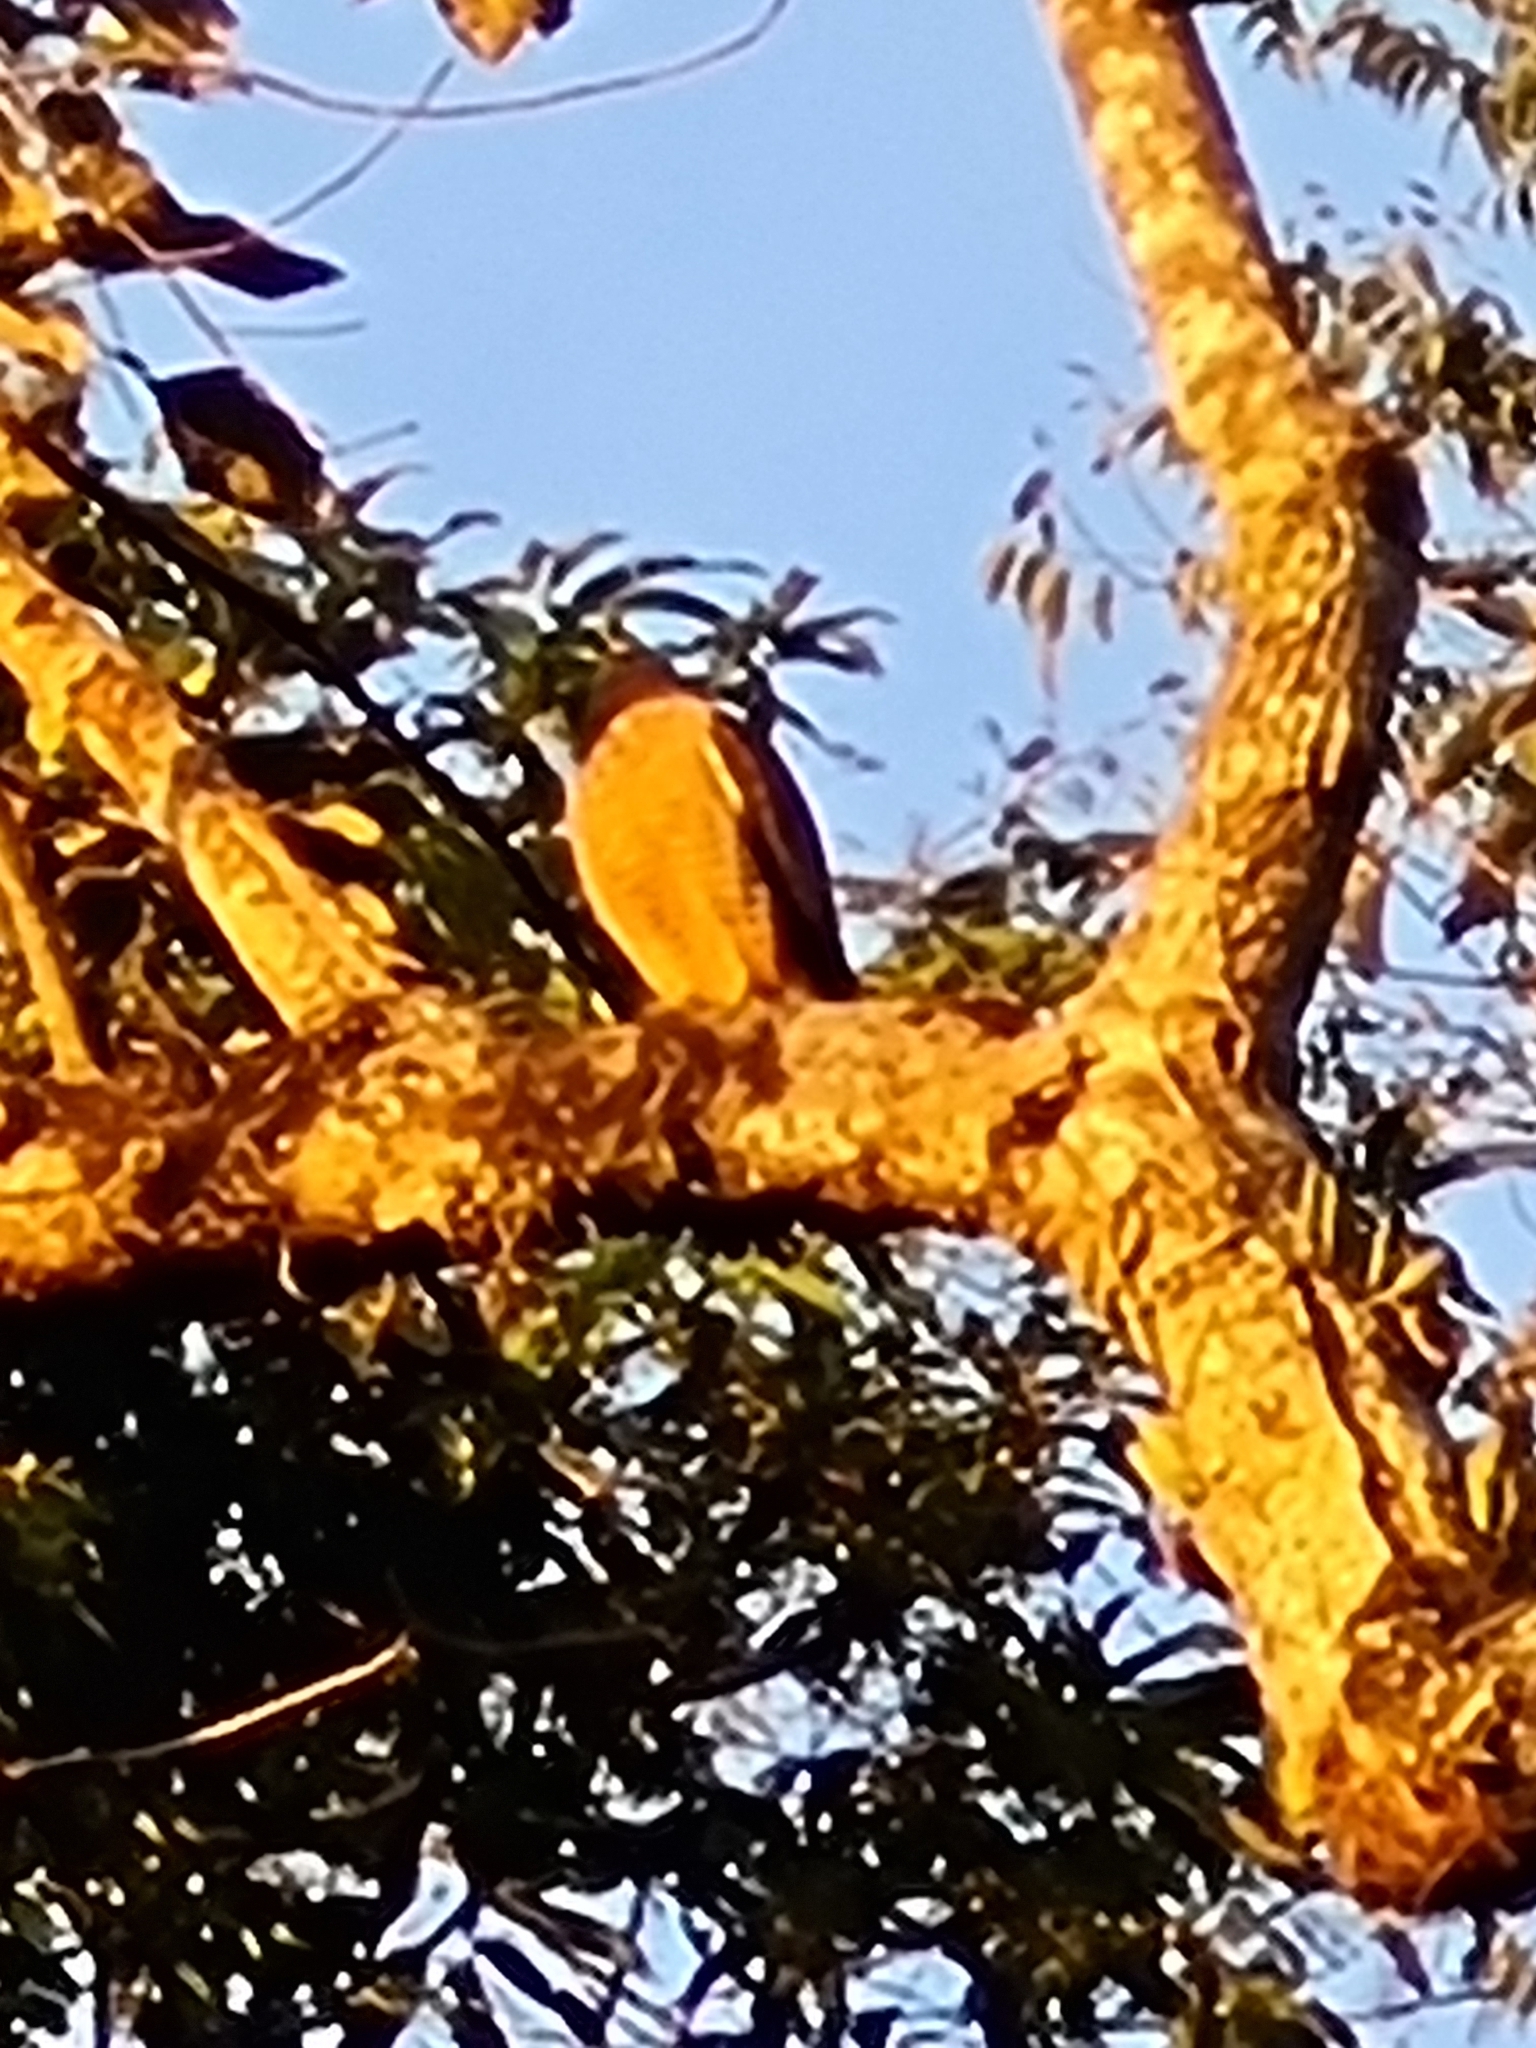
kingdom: Animalia
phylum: Chordata
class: Aves
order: Accipitriformes
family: Accipitridae
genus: Rupornis
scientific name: Rupornis magnirostris
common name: Roadside hawk
